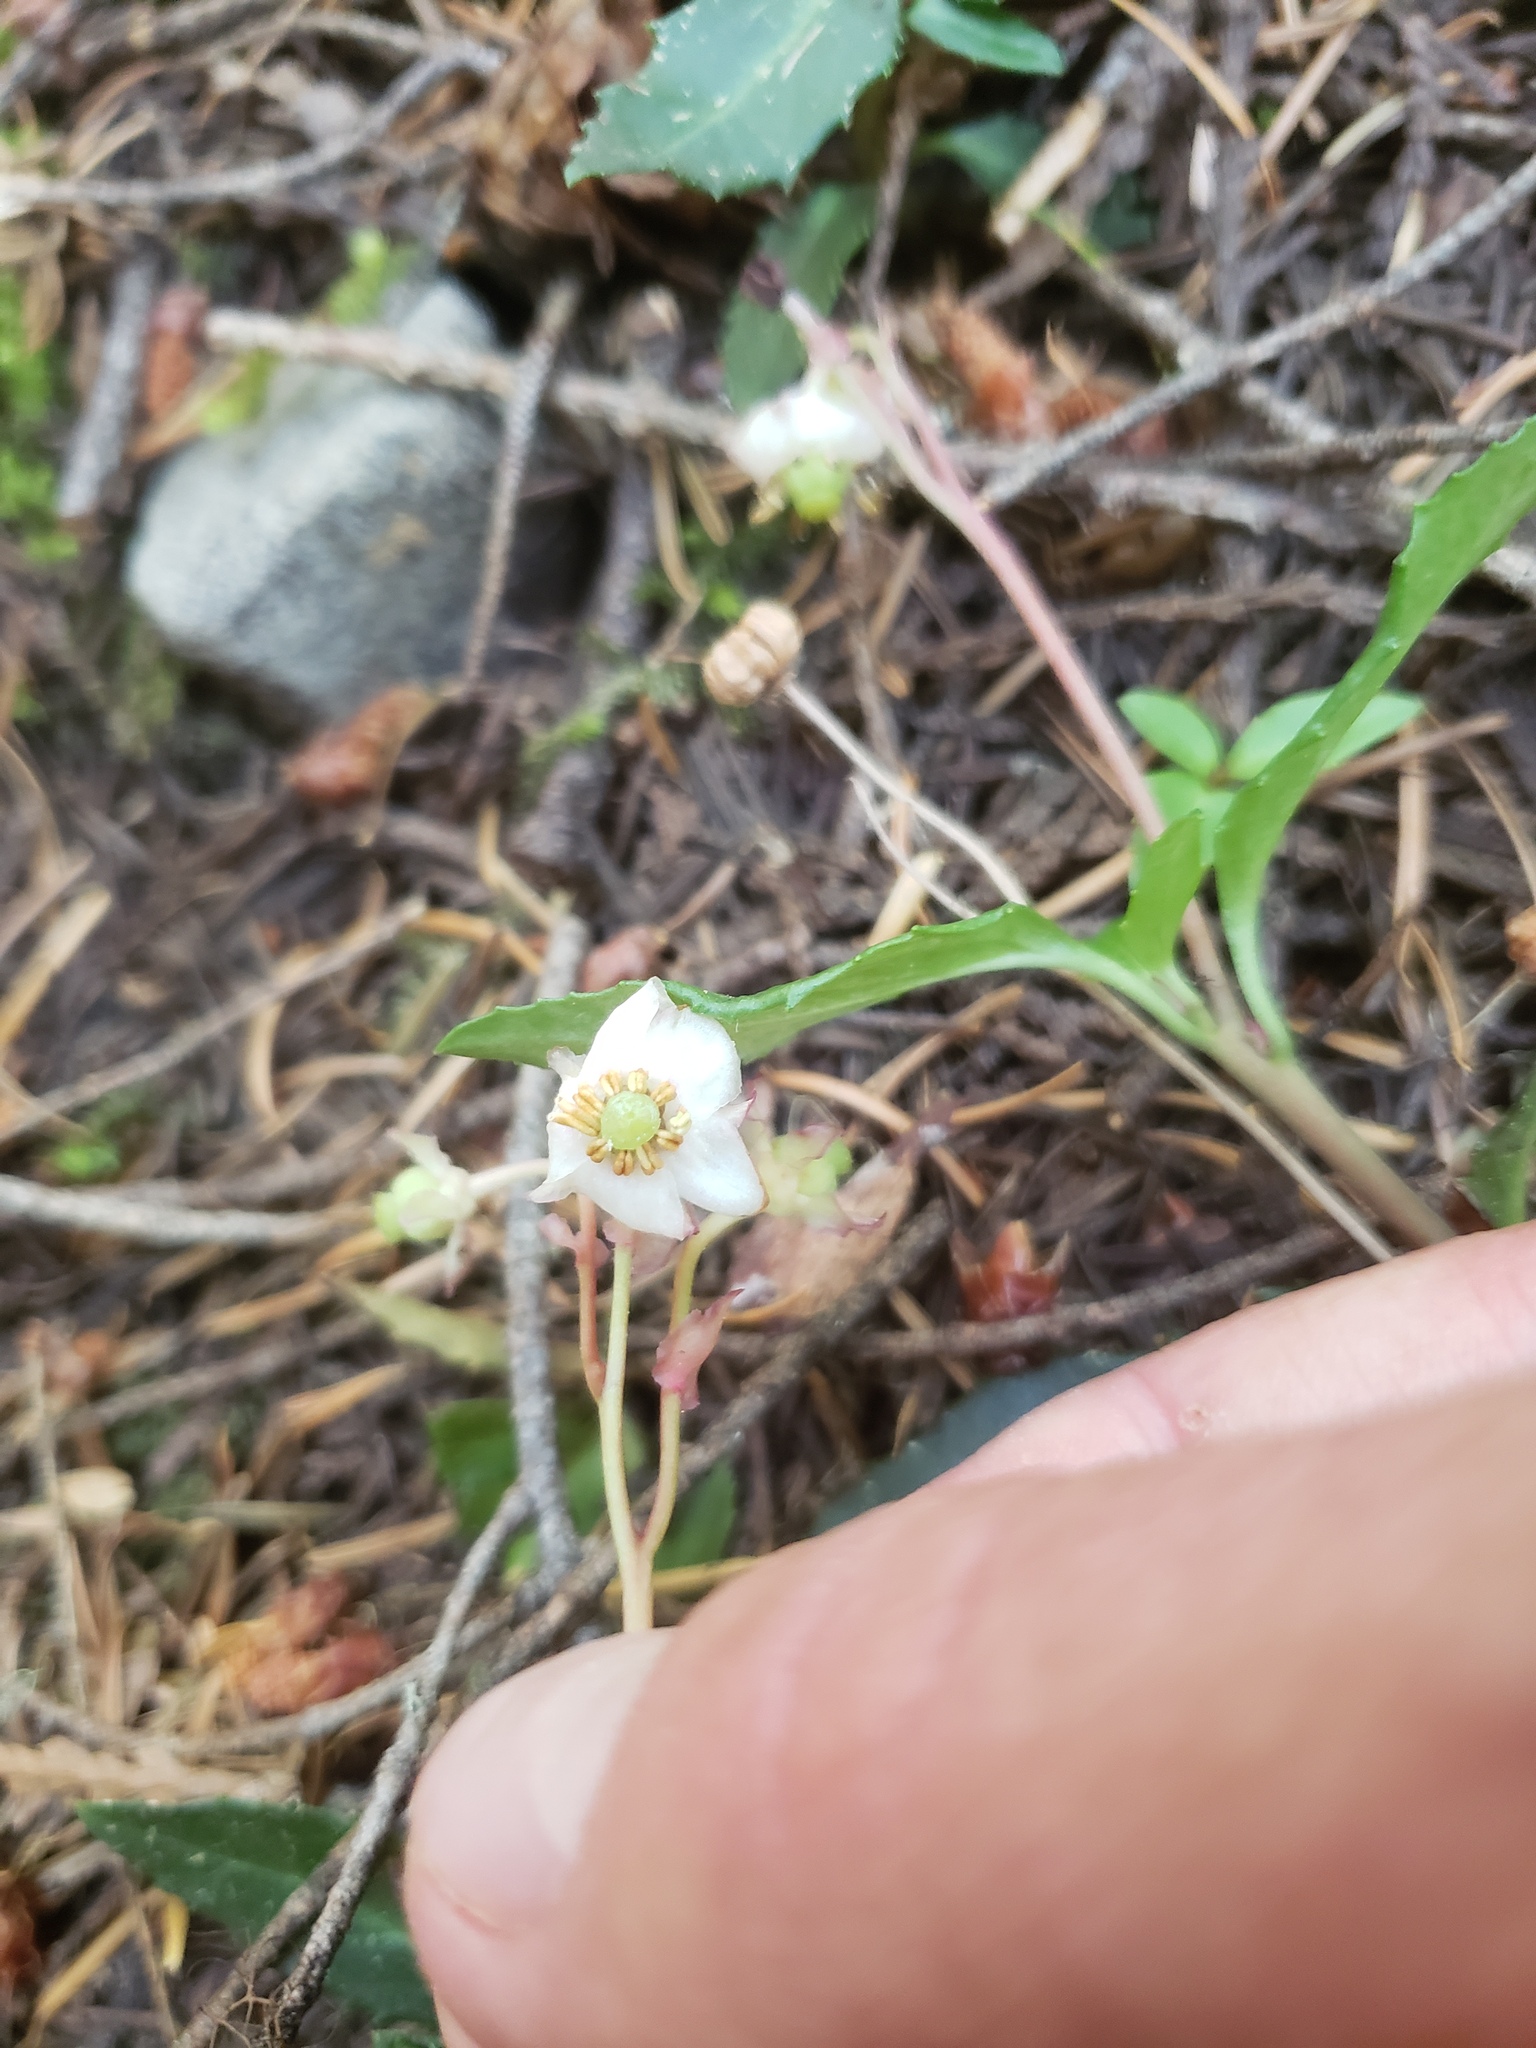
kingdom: Plantae
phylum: Tracheophyta
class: Magnoliopsida
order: Ericales
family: Ericaceae
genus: Chimaphila
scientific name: Chimaphila menziesii
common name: Menzies' pipsissewa
